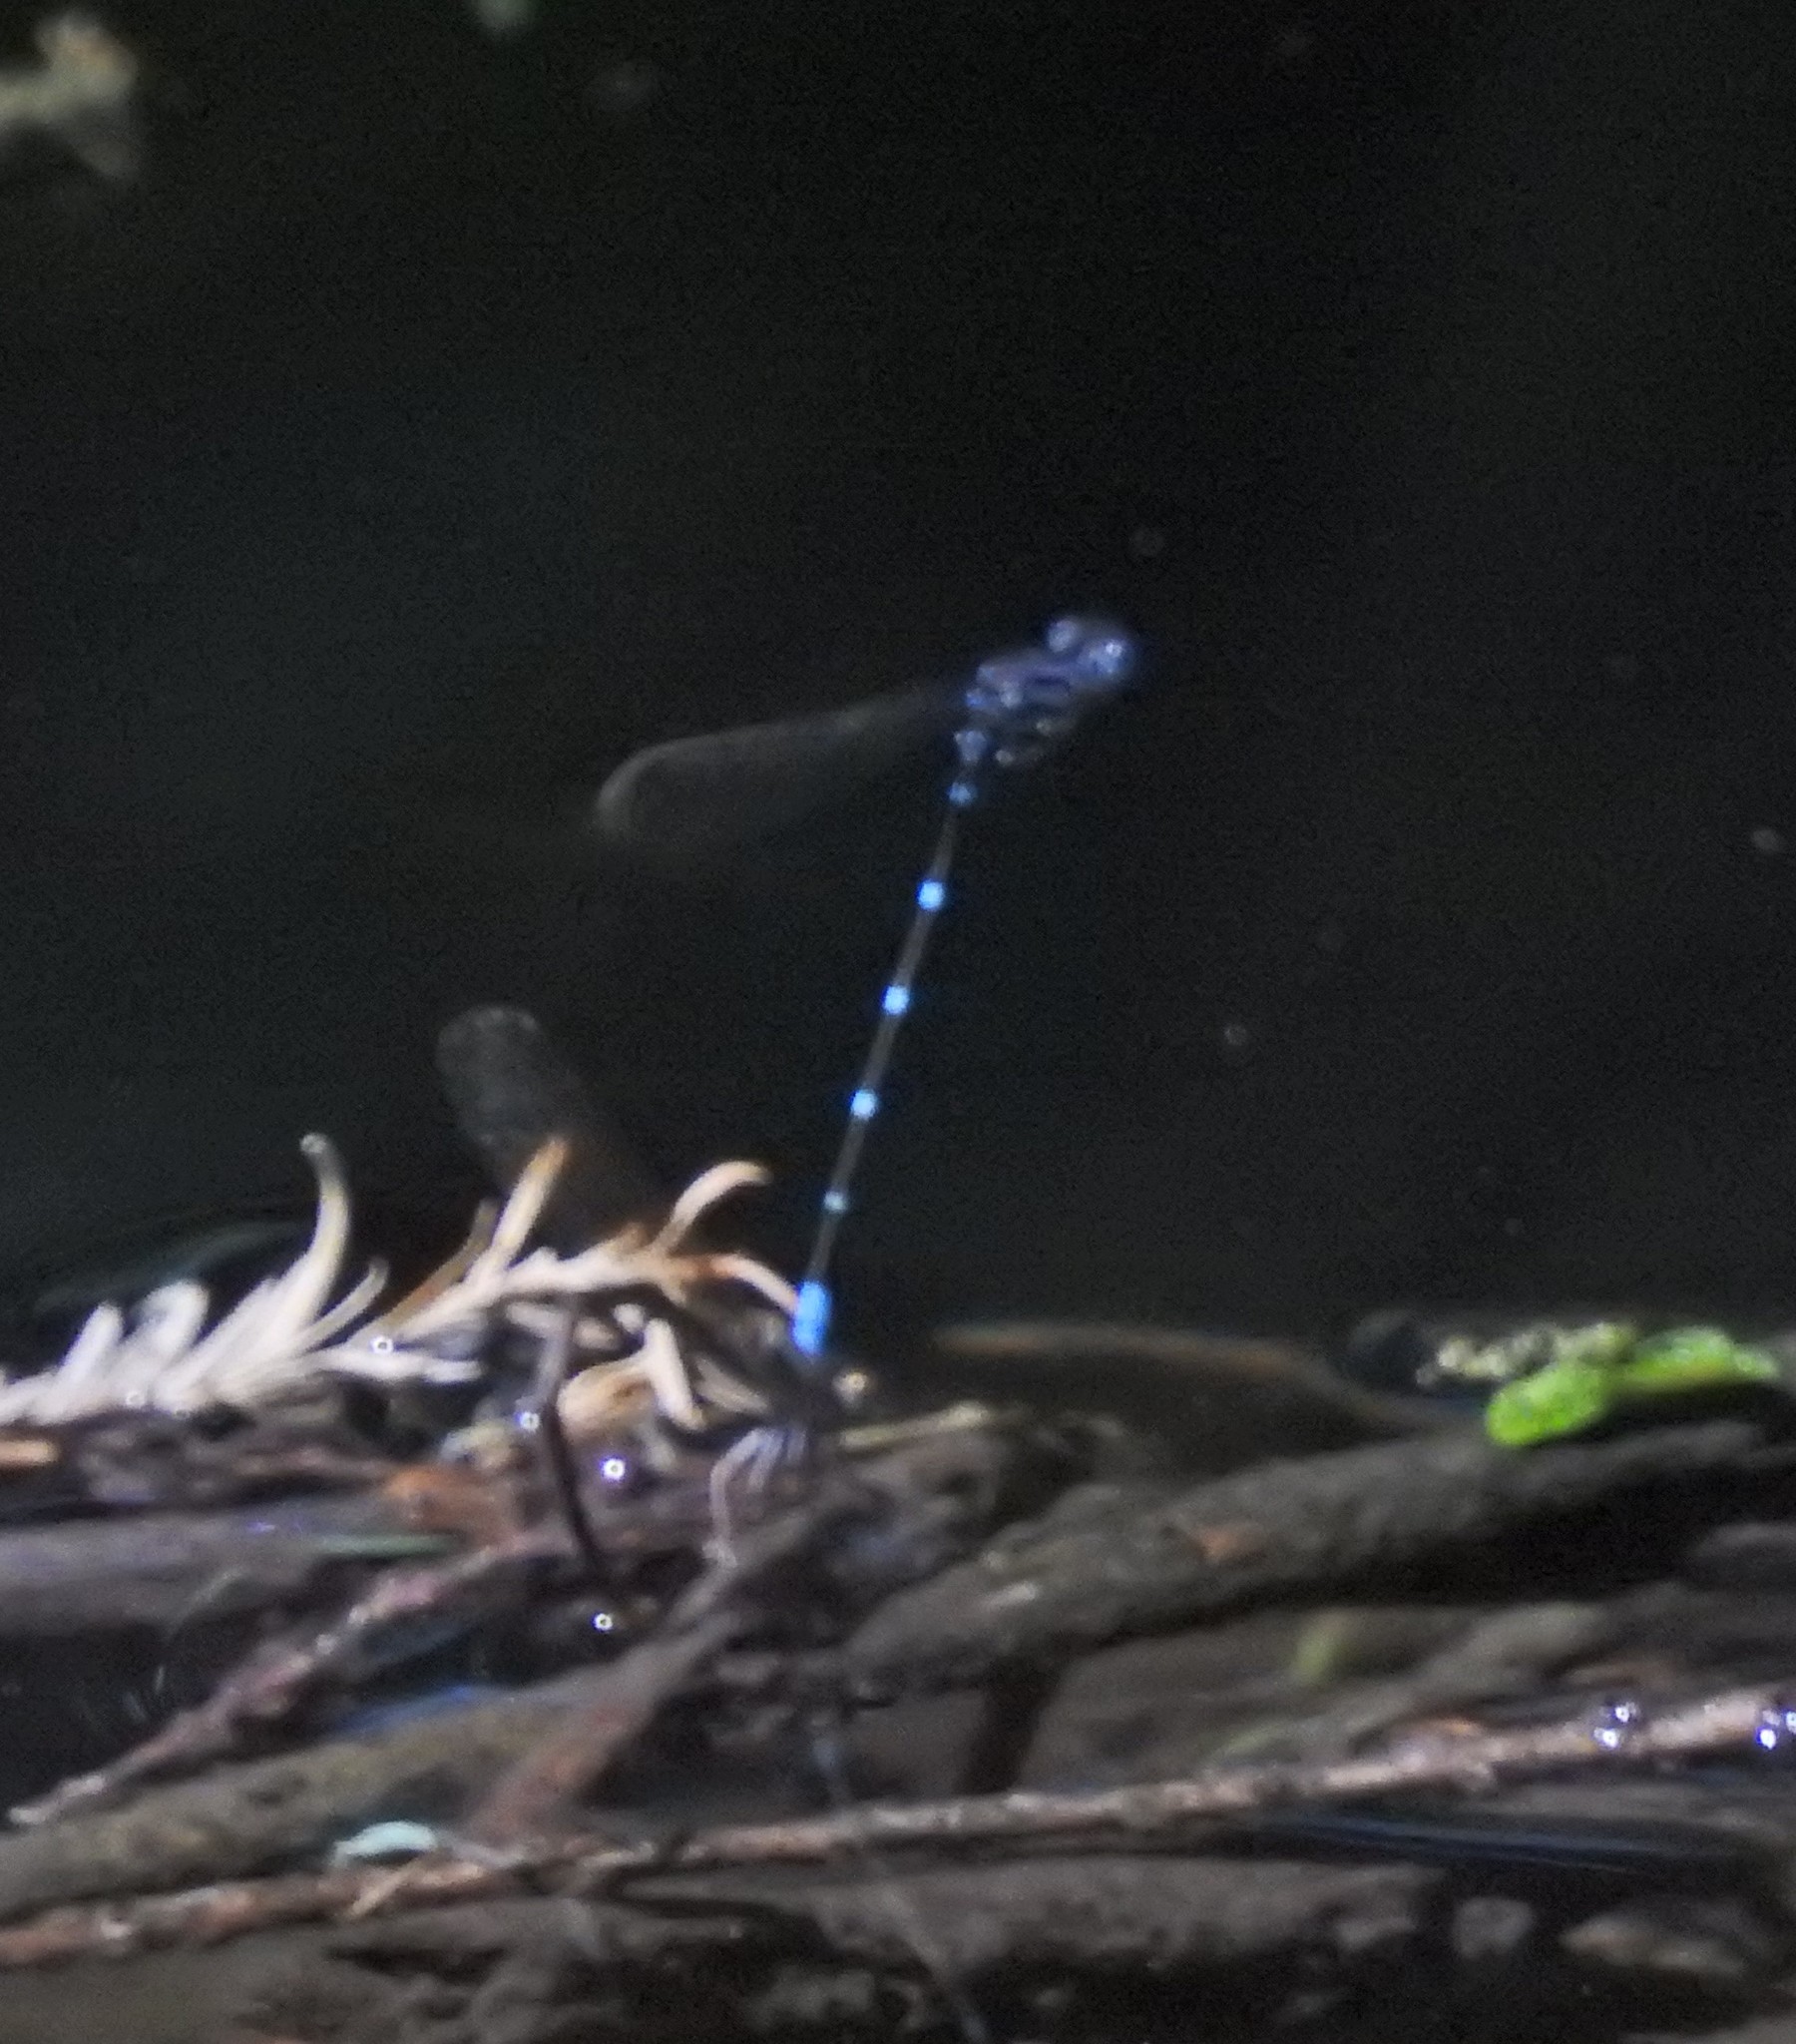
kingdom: Animalia
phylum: Arthropoda
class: Insecta
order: Odonata
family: Coenagrionidae
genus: Argia
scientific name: Argia sedula
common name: Blue-ringed dancer
